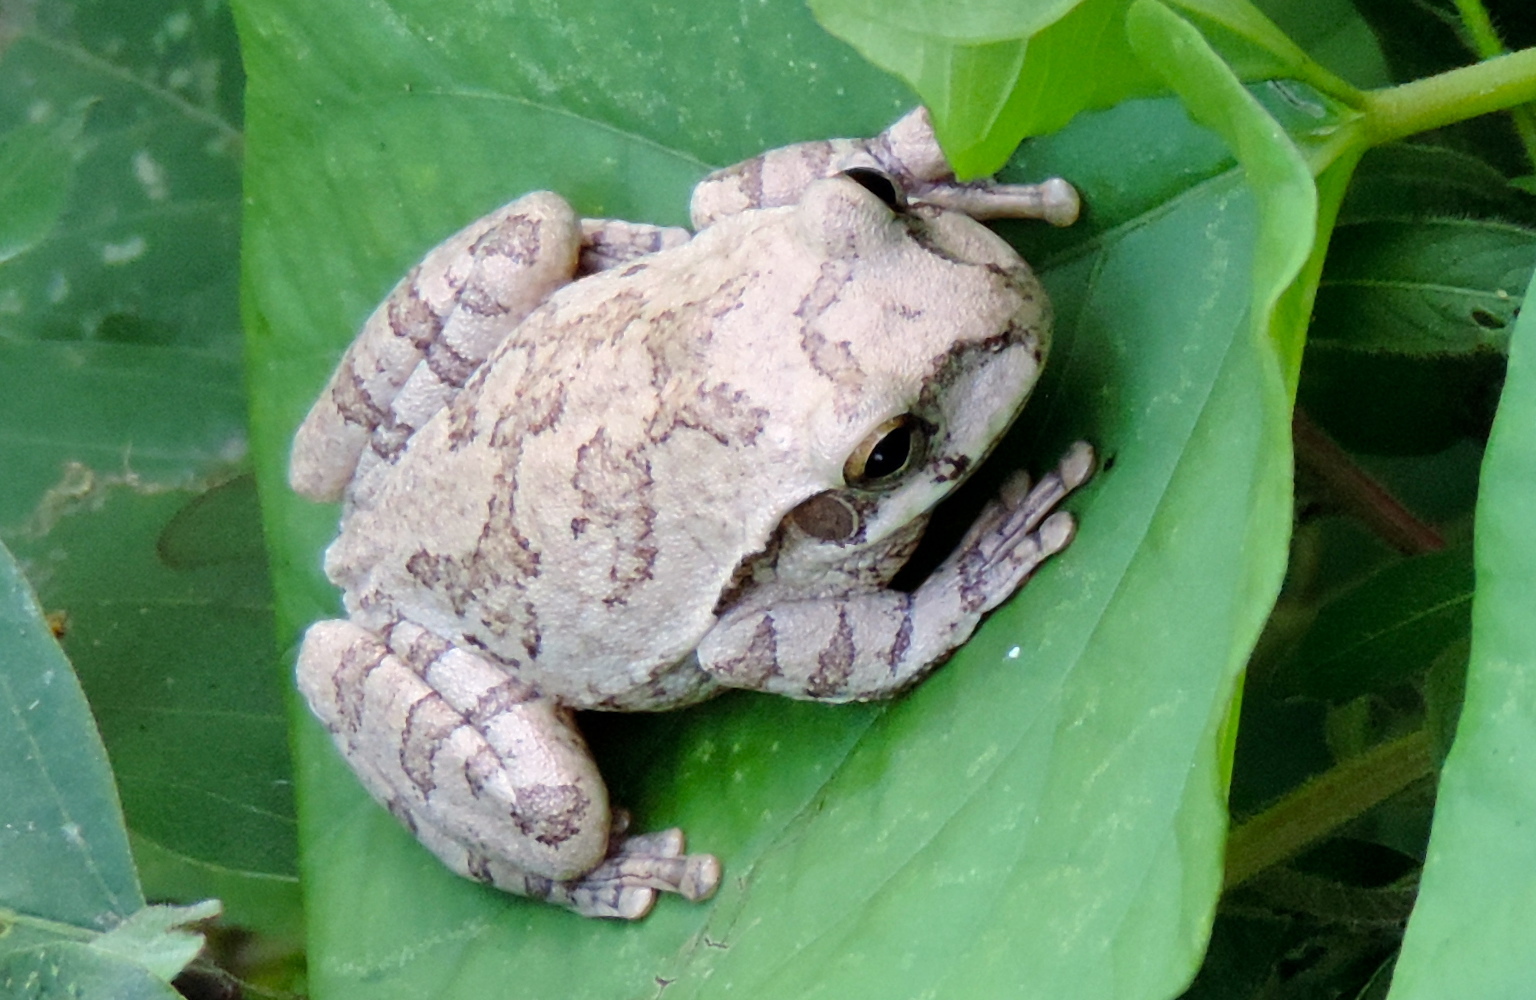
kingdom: Animalia
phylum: Chordata
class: Amphibia
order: Anura
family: Hylidae
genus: Smilisca
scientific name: Smilisca baudinii
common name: Mexican smilisca
